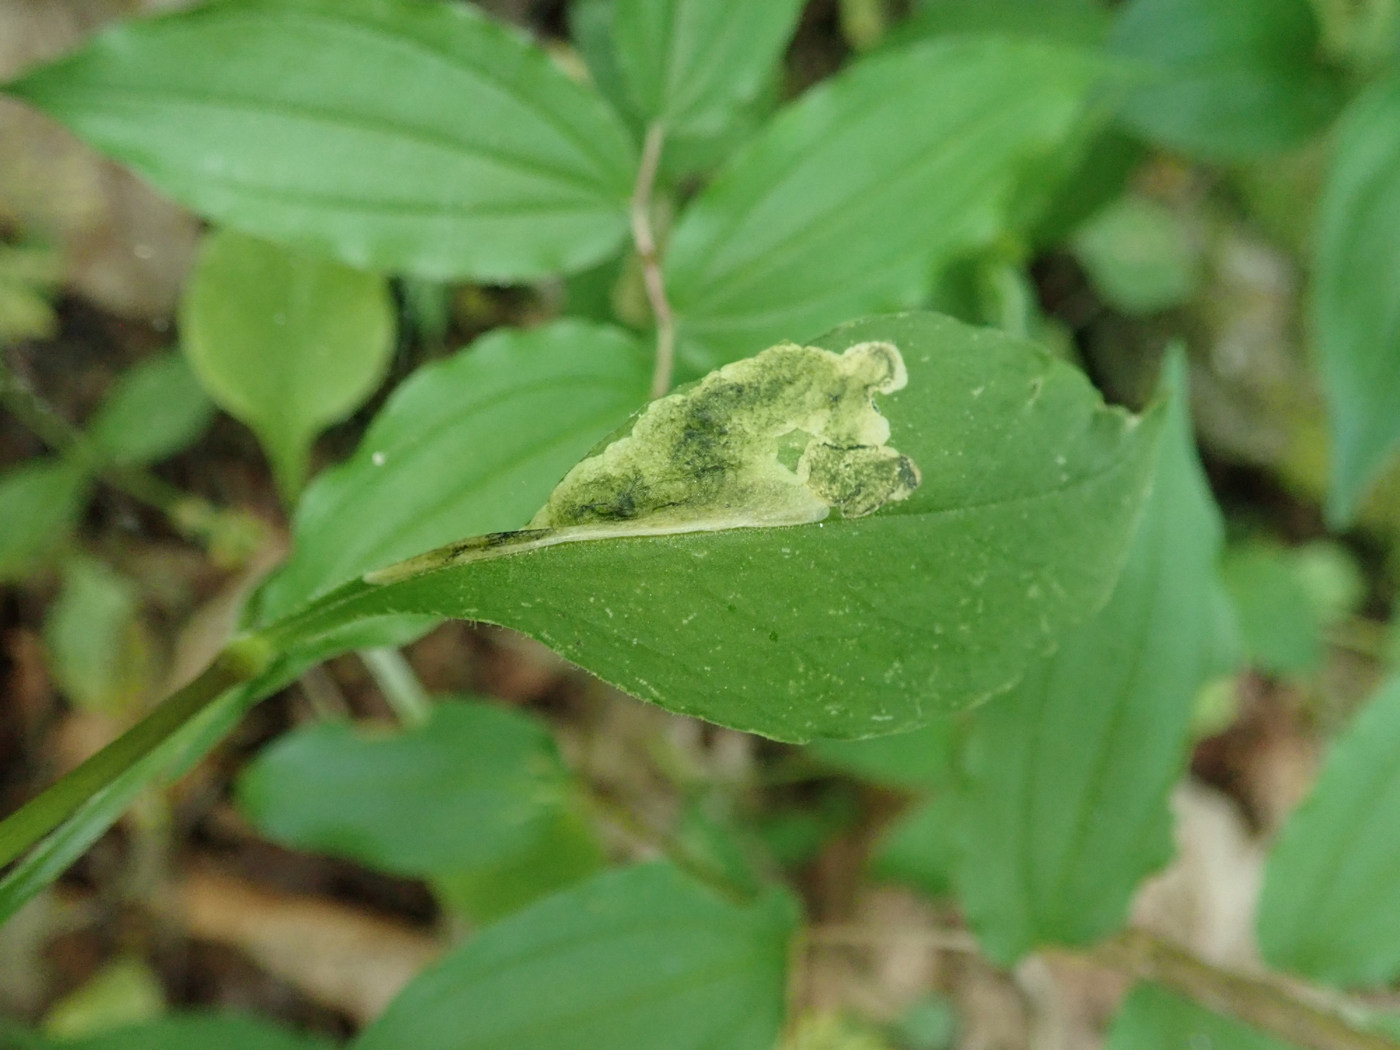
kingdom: Animalia
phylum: Arthropoda
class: Insecta
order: Diptera
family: Anthomyiidae
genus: Pegomya
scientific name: Pegomya flavifrons
